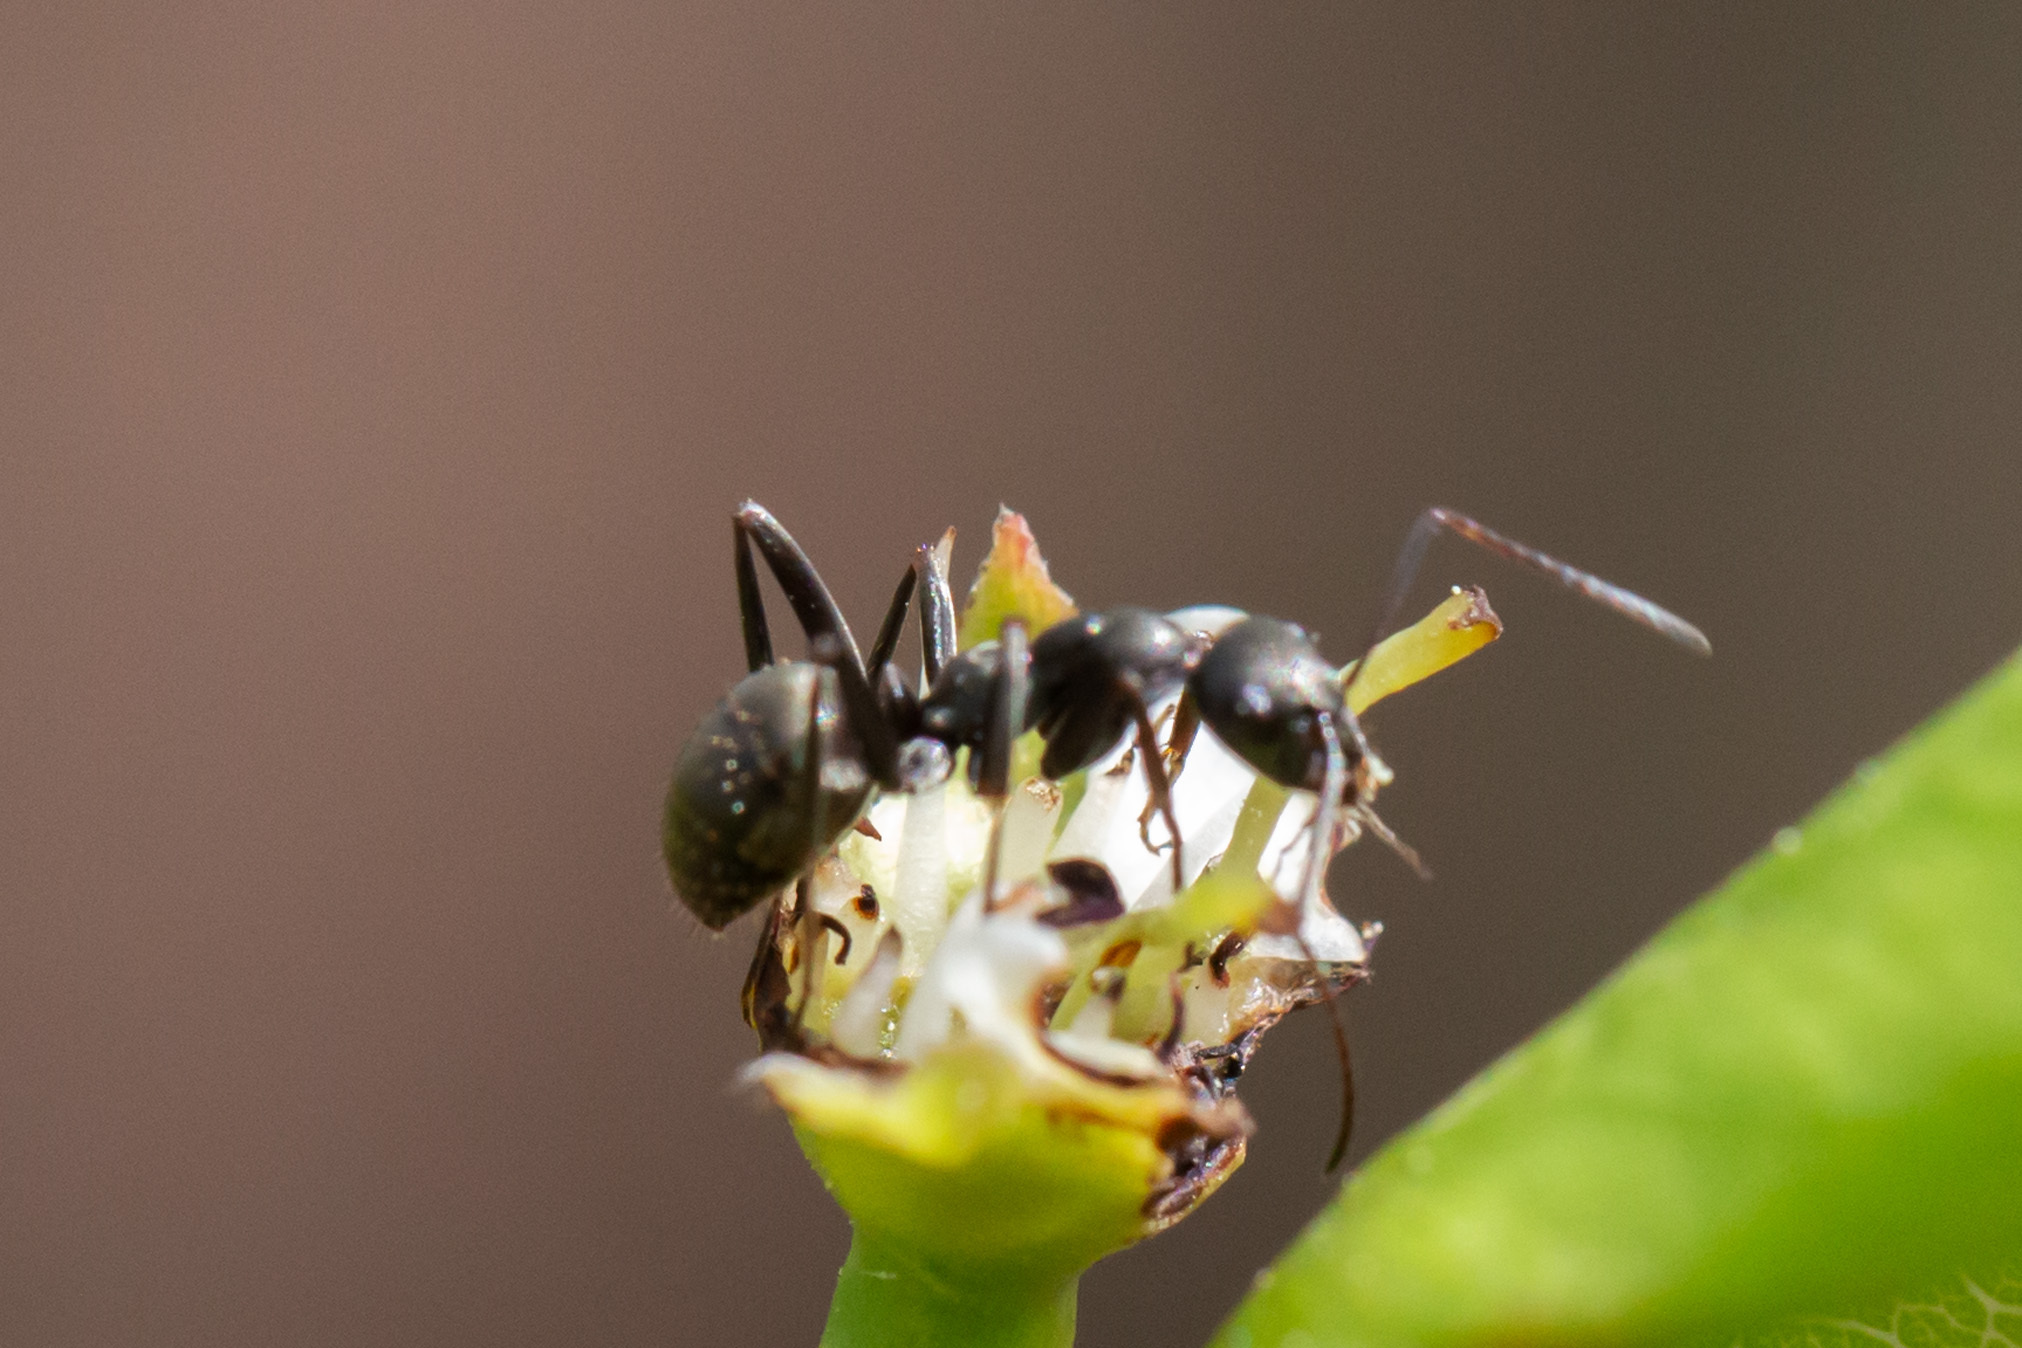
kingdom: Animalia
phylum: Arthropoda
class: Insecta
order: Hymenoptera
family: Formicidae
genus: Formica
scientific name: Formica
